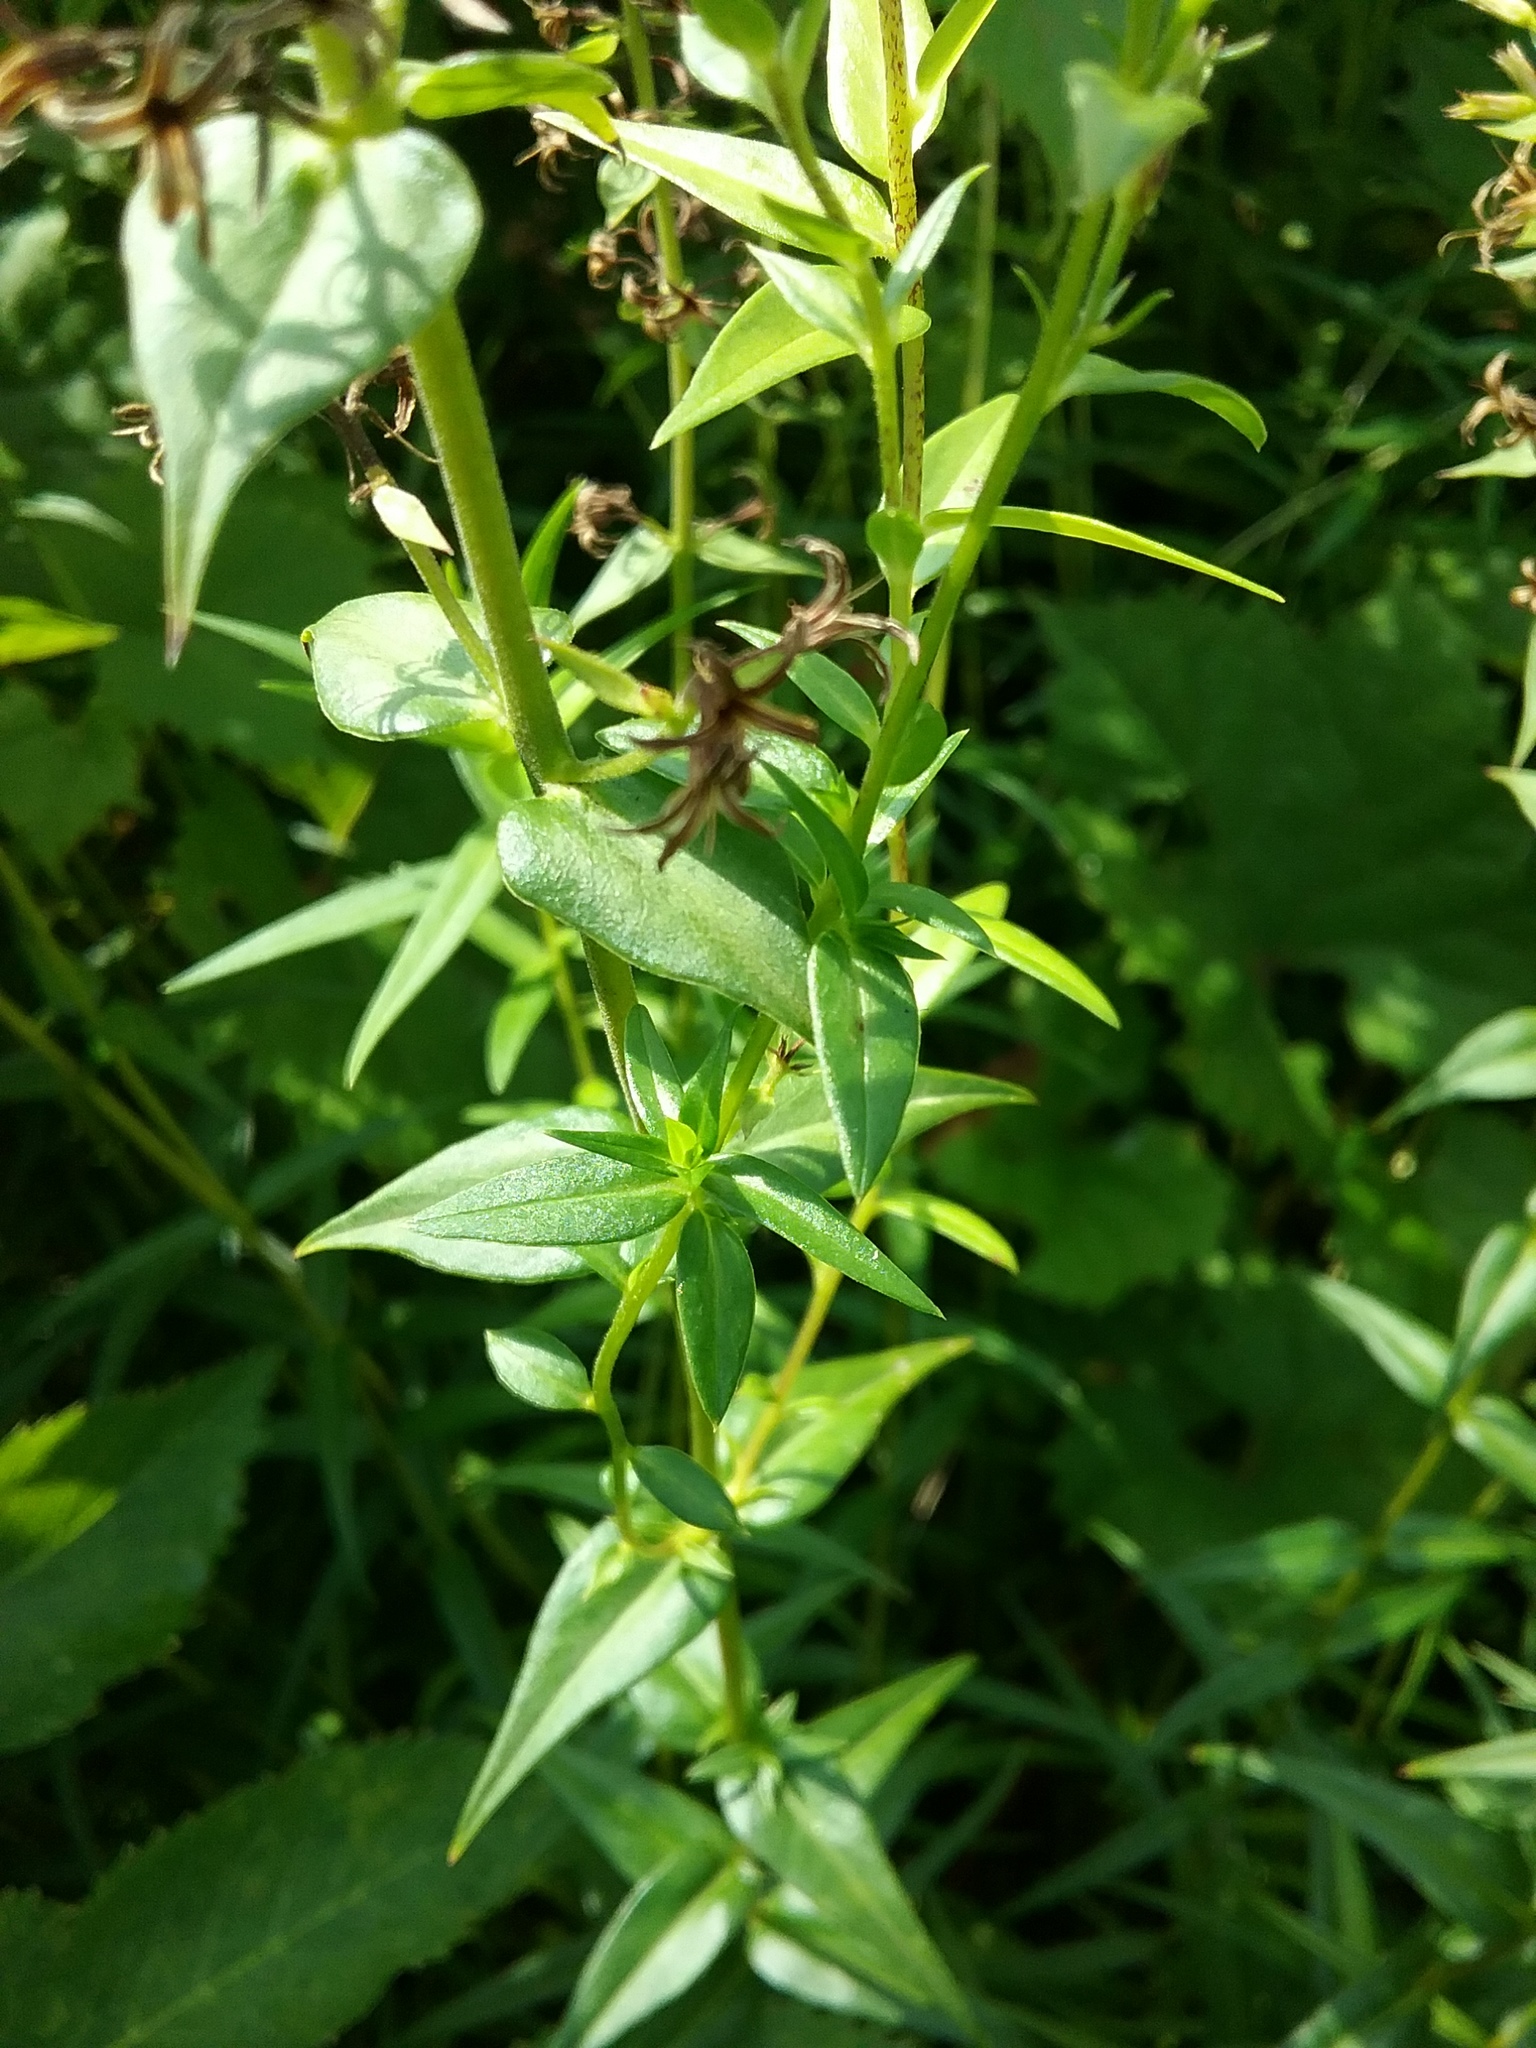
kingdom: Plantae
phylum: Tracheophyta
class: Magnoliopsida
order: Ericales
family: Polemoniaceae
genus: Phlox
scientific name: Phlox glaberrima
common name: Smooth phlox
